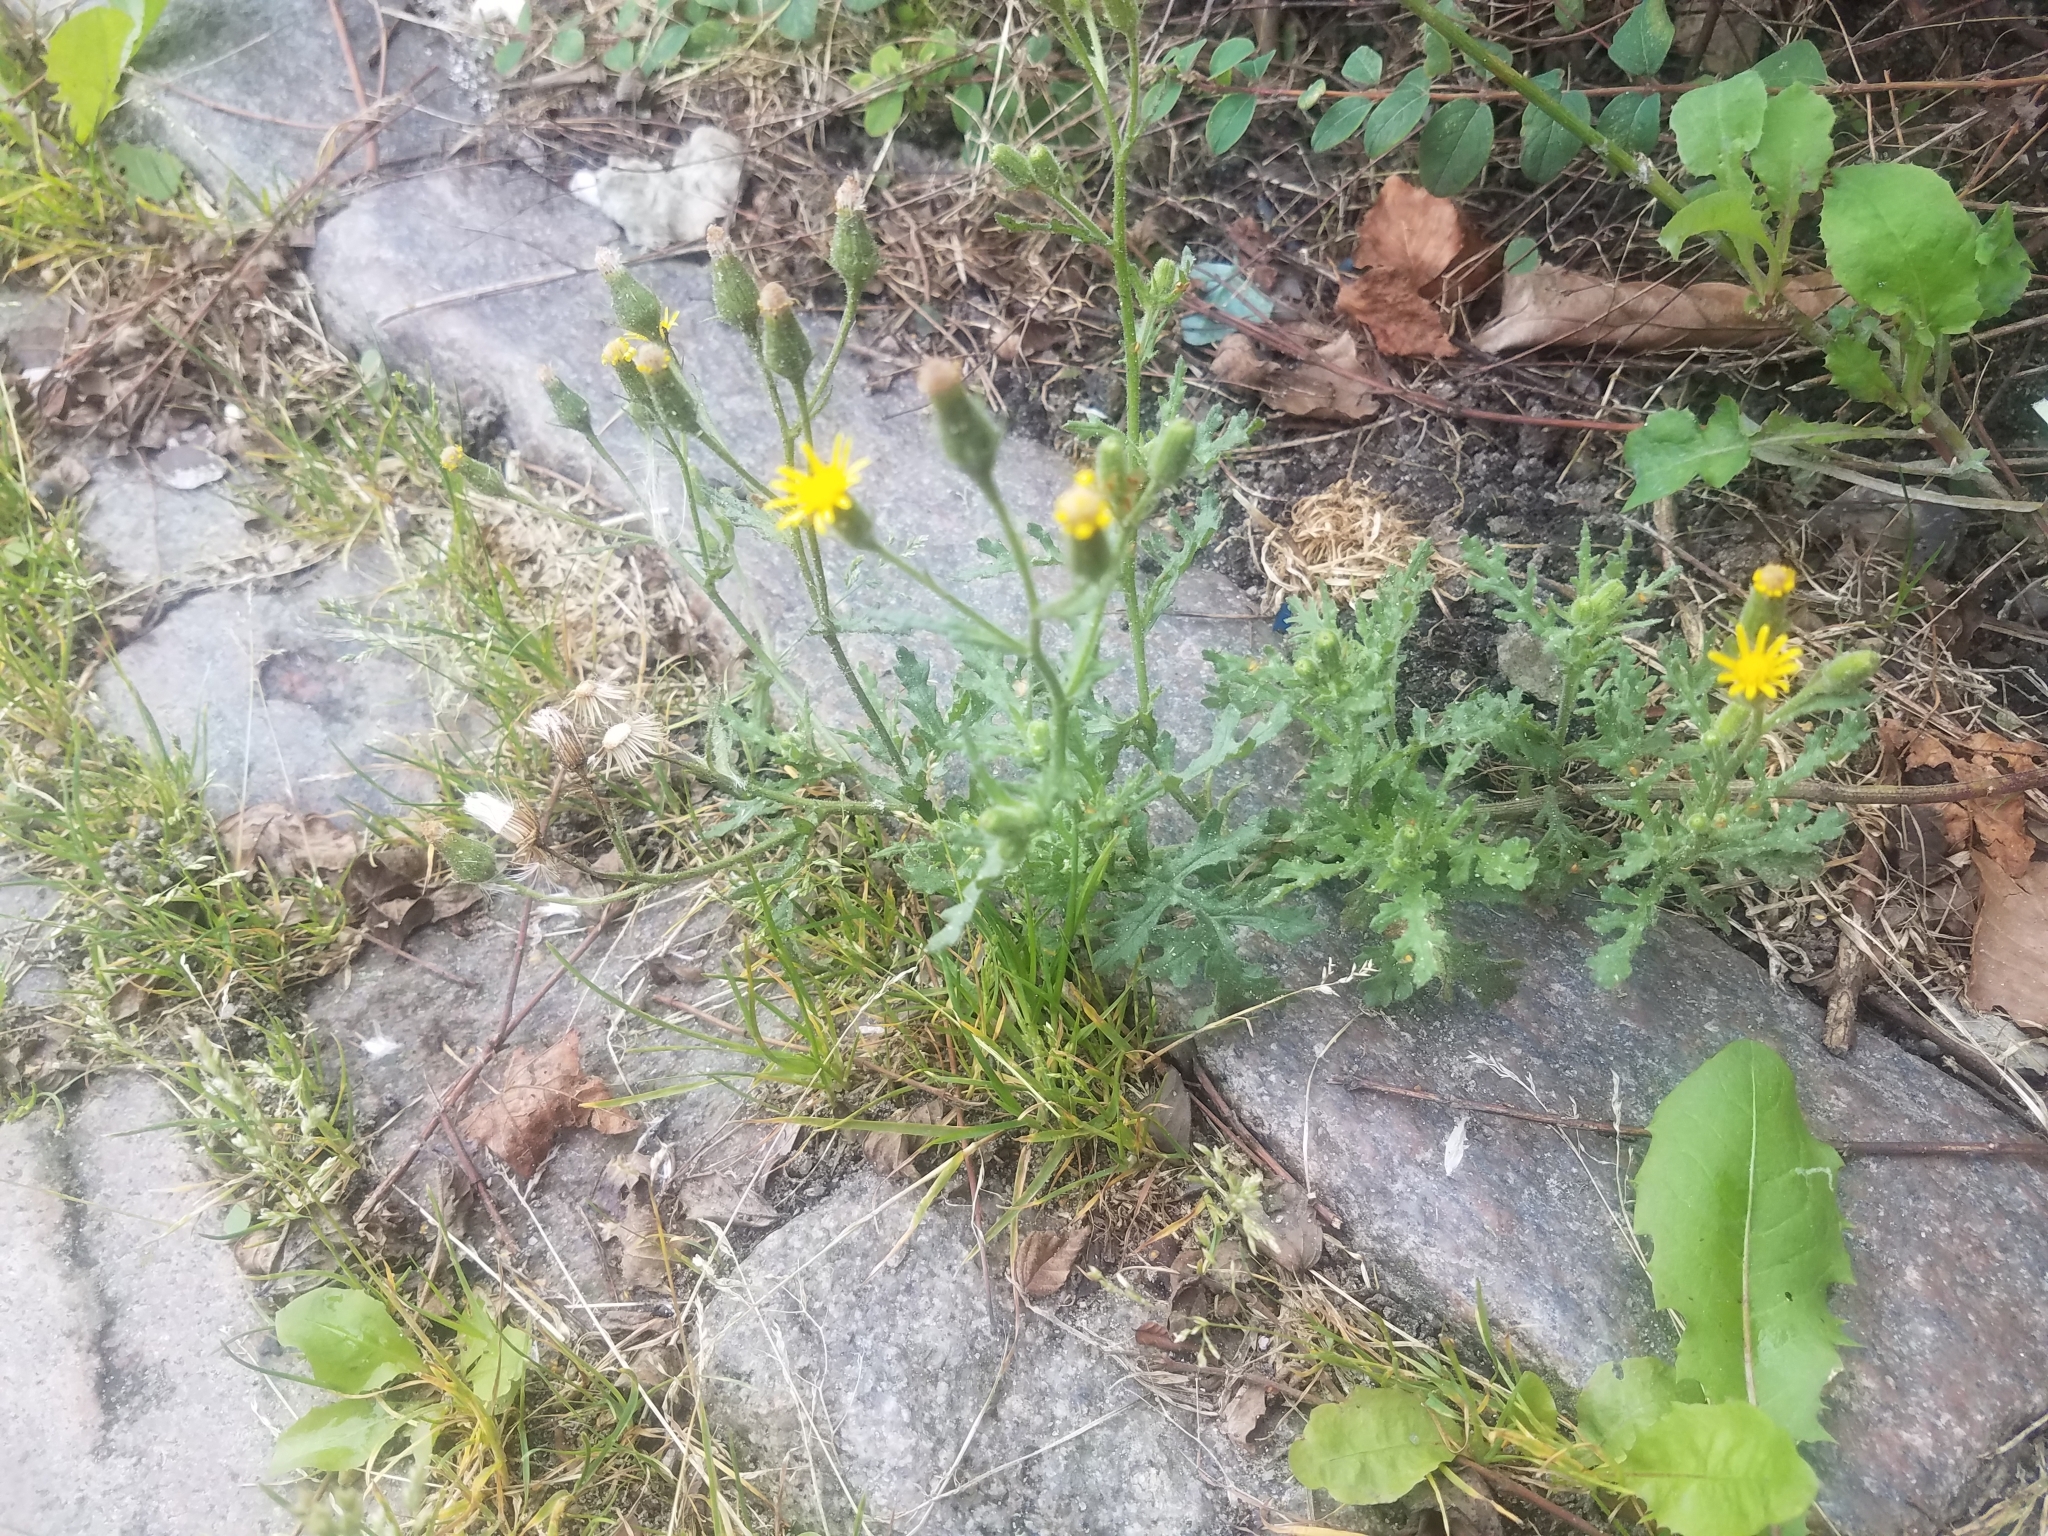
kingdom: Plantae
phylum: Tracheophyta
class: Magnoliopsida
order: Asterales
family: Asteraceae
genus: Senecio
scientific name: Senecio viscosus
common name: Sticky groundsel
